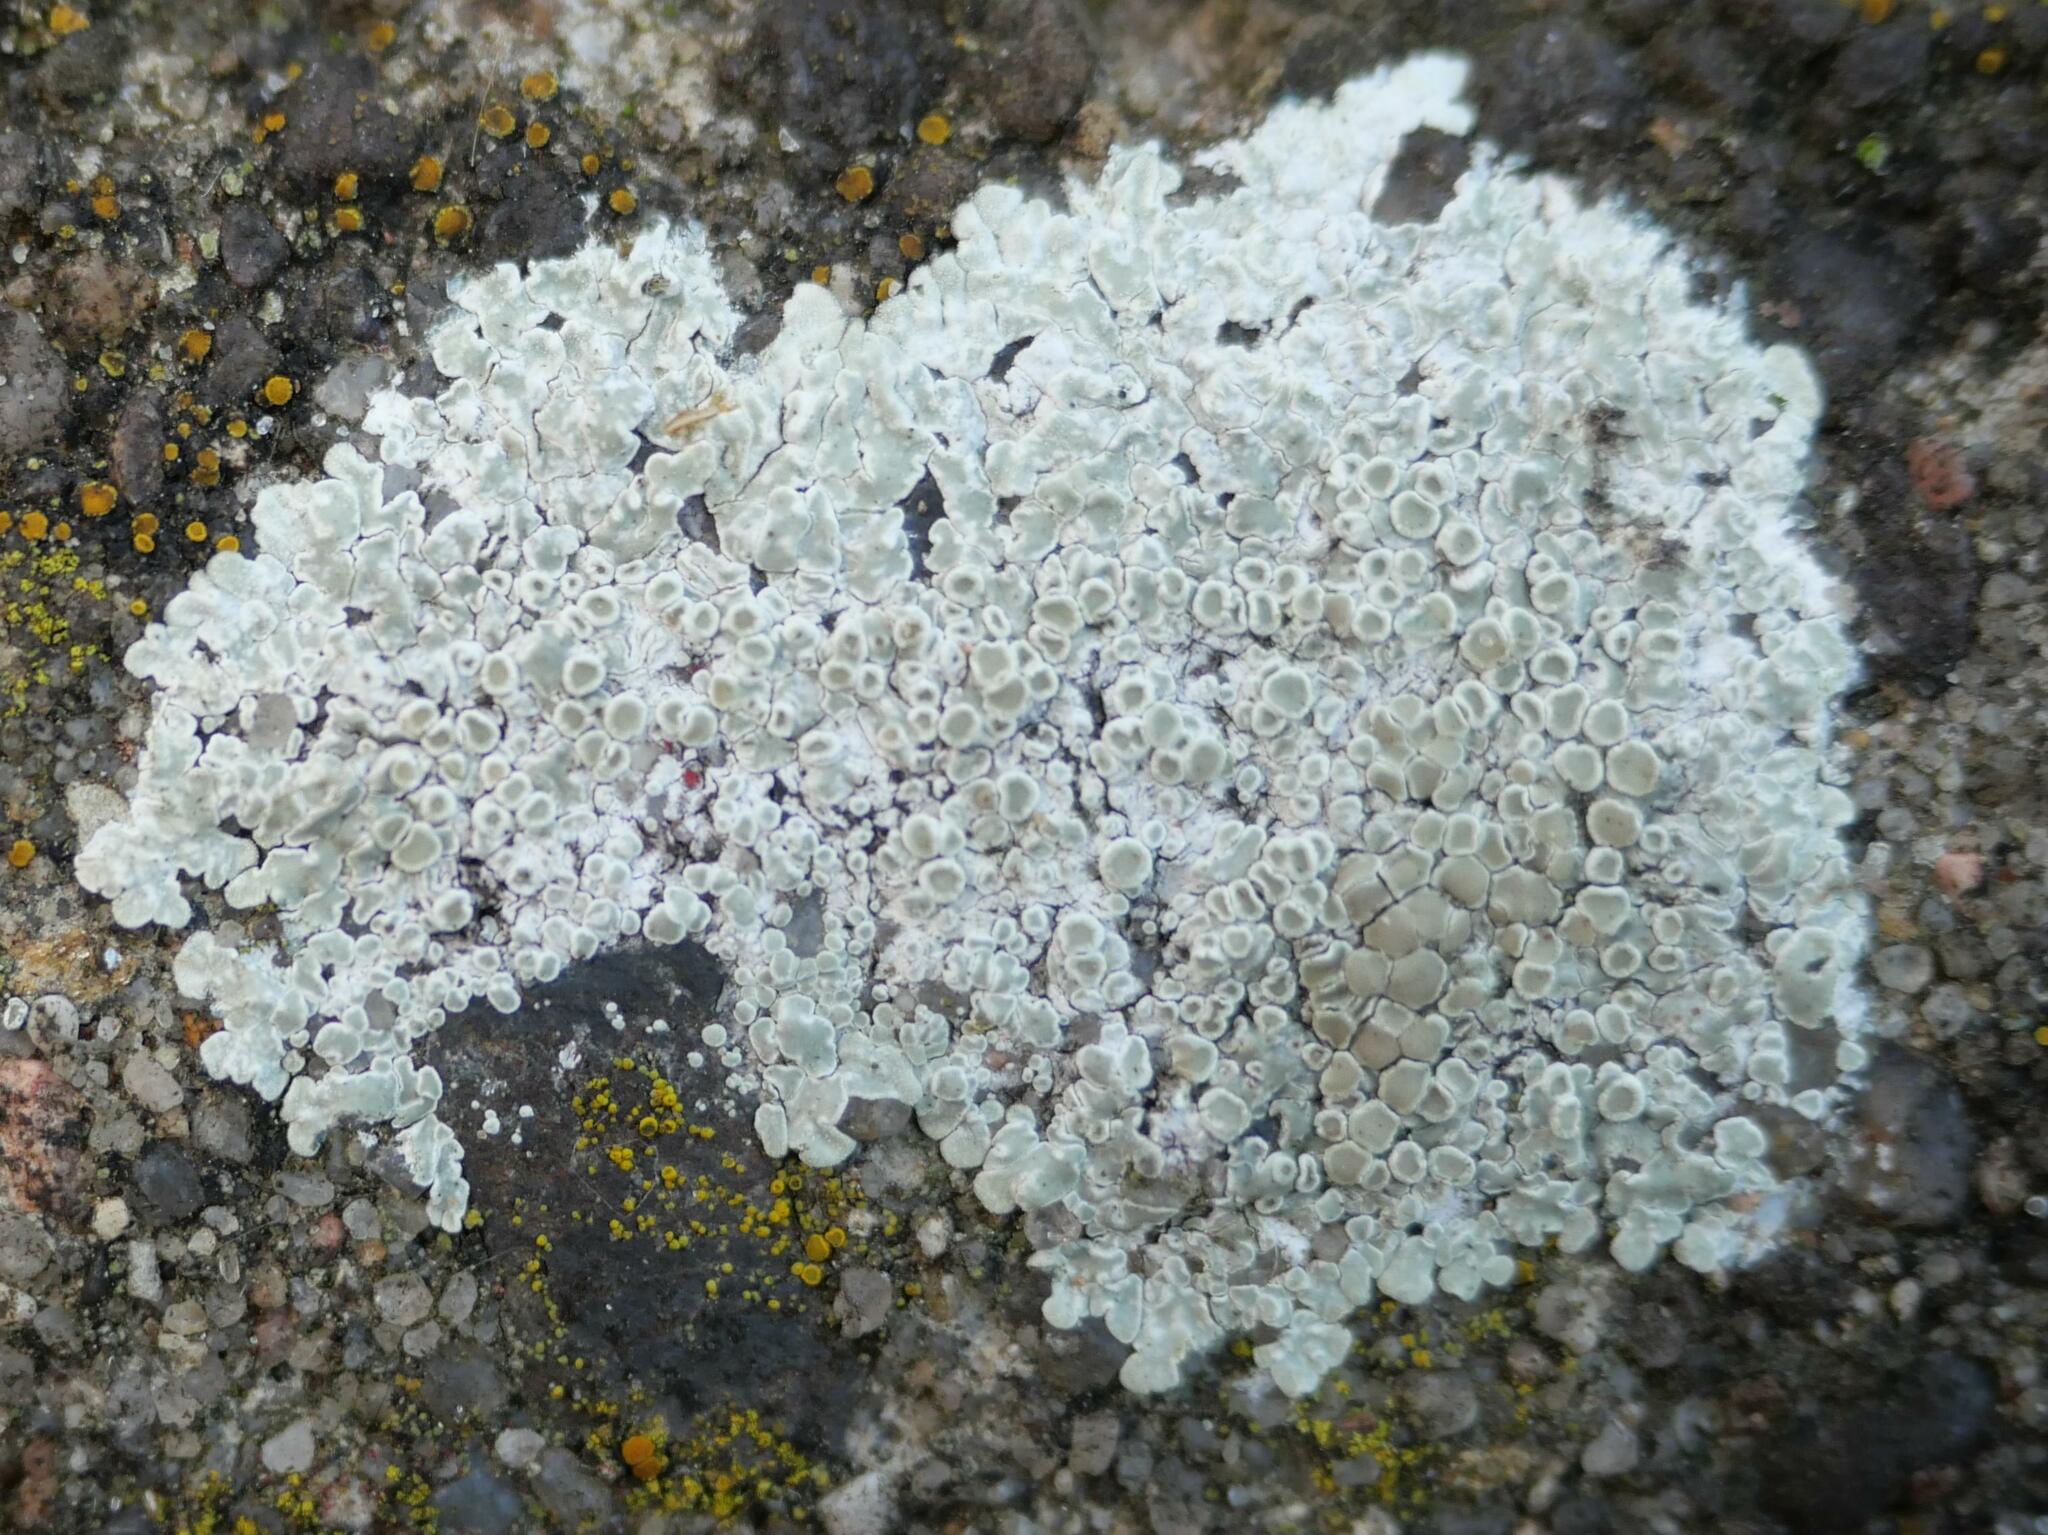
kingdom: Fungi
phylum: Ascomycota
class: Lecanoromycetes
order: Lecanorales
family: Lecanoraceae
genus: Protoparmeliopsis
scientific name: Protoparmeliopsis muralis
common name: Stonewall rim lichen
